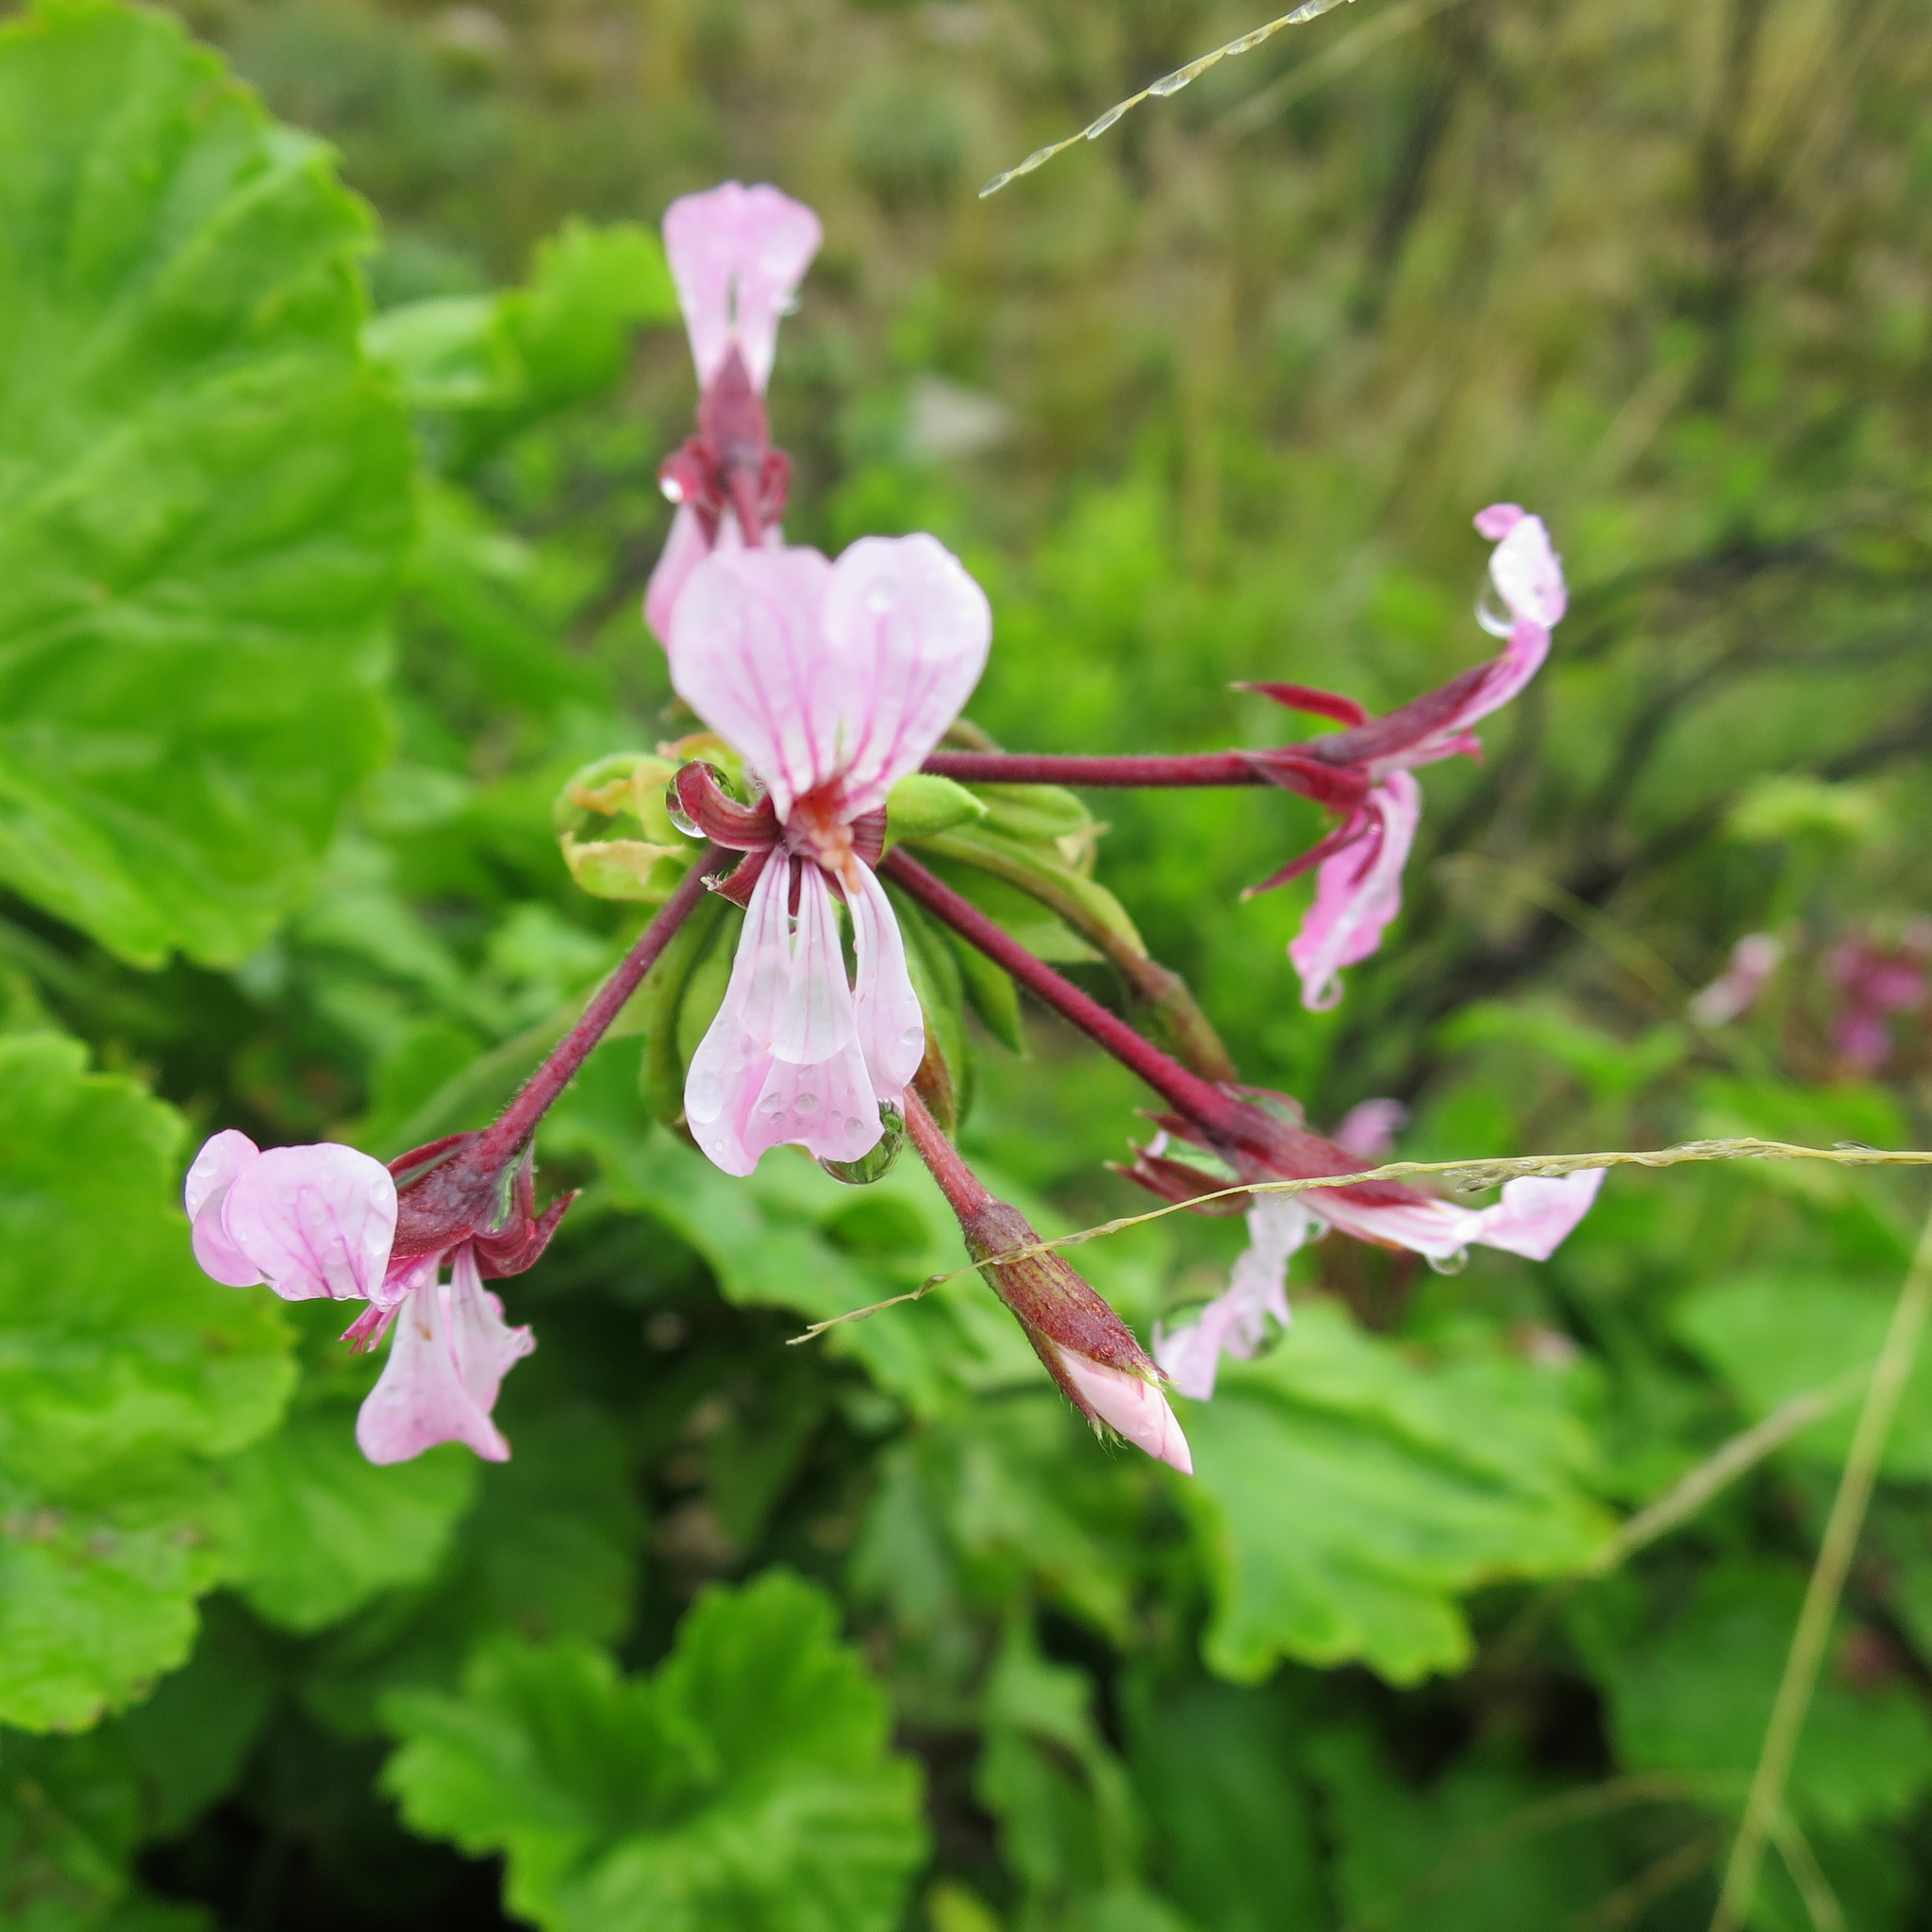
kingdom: Plantae
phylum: Tracheophyta
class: Magnoliopsida
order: Geraniales
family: Geraniaceae
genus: Pelargonium
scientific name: Pelargonium zonale
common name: Horseshoe geranium
